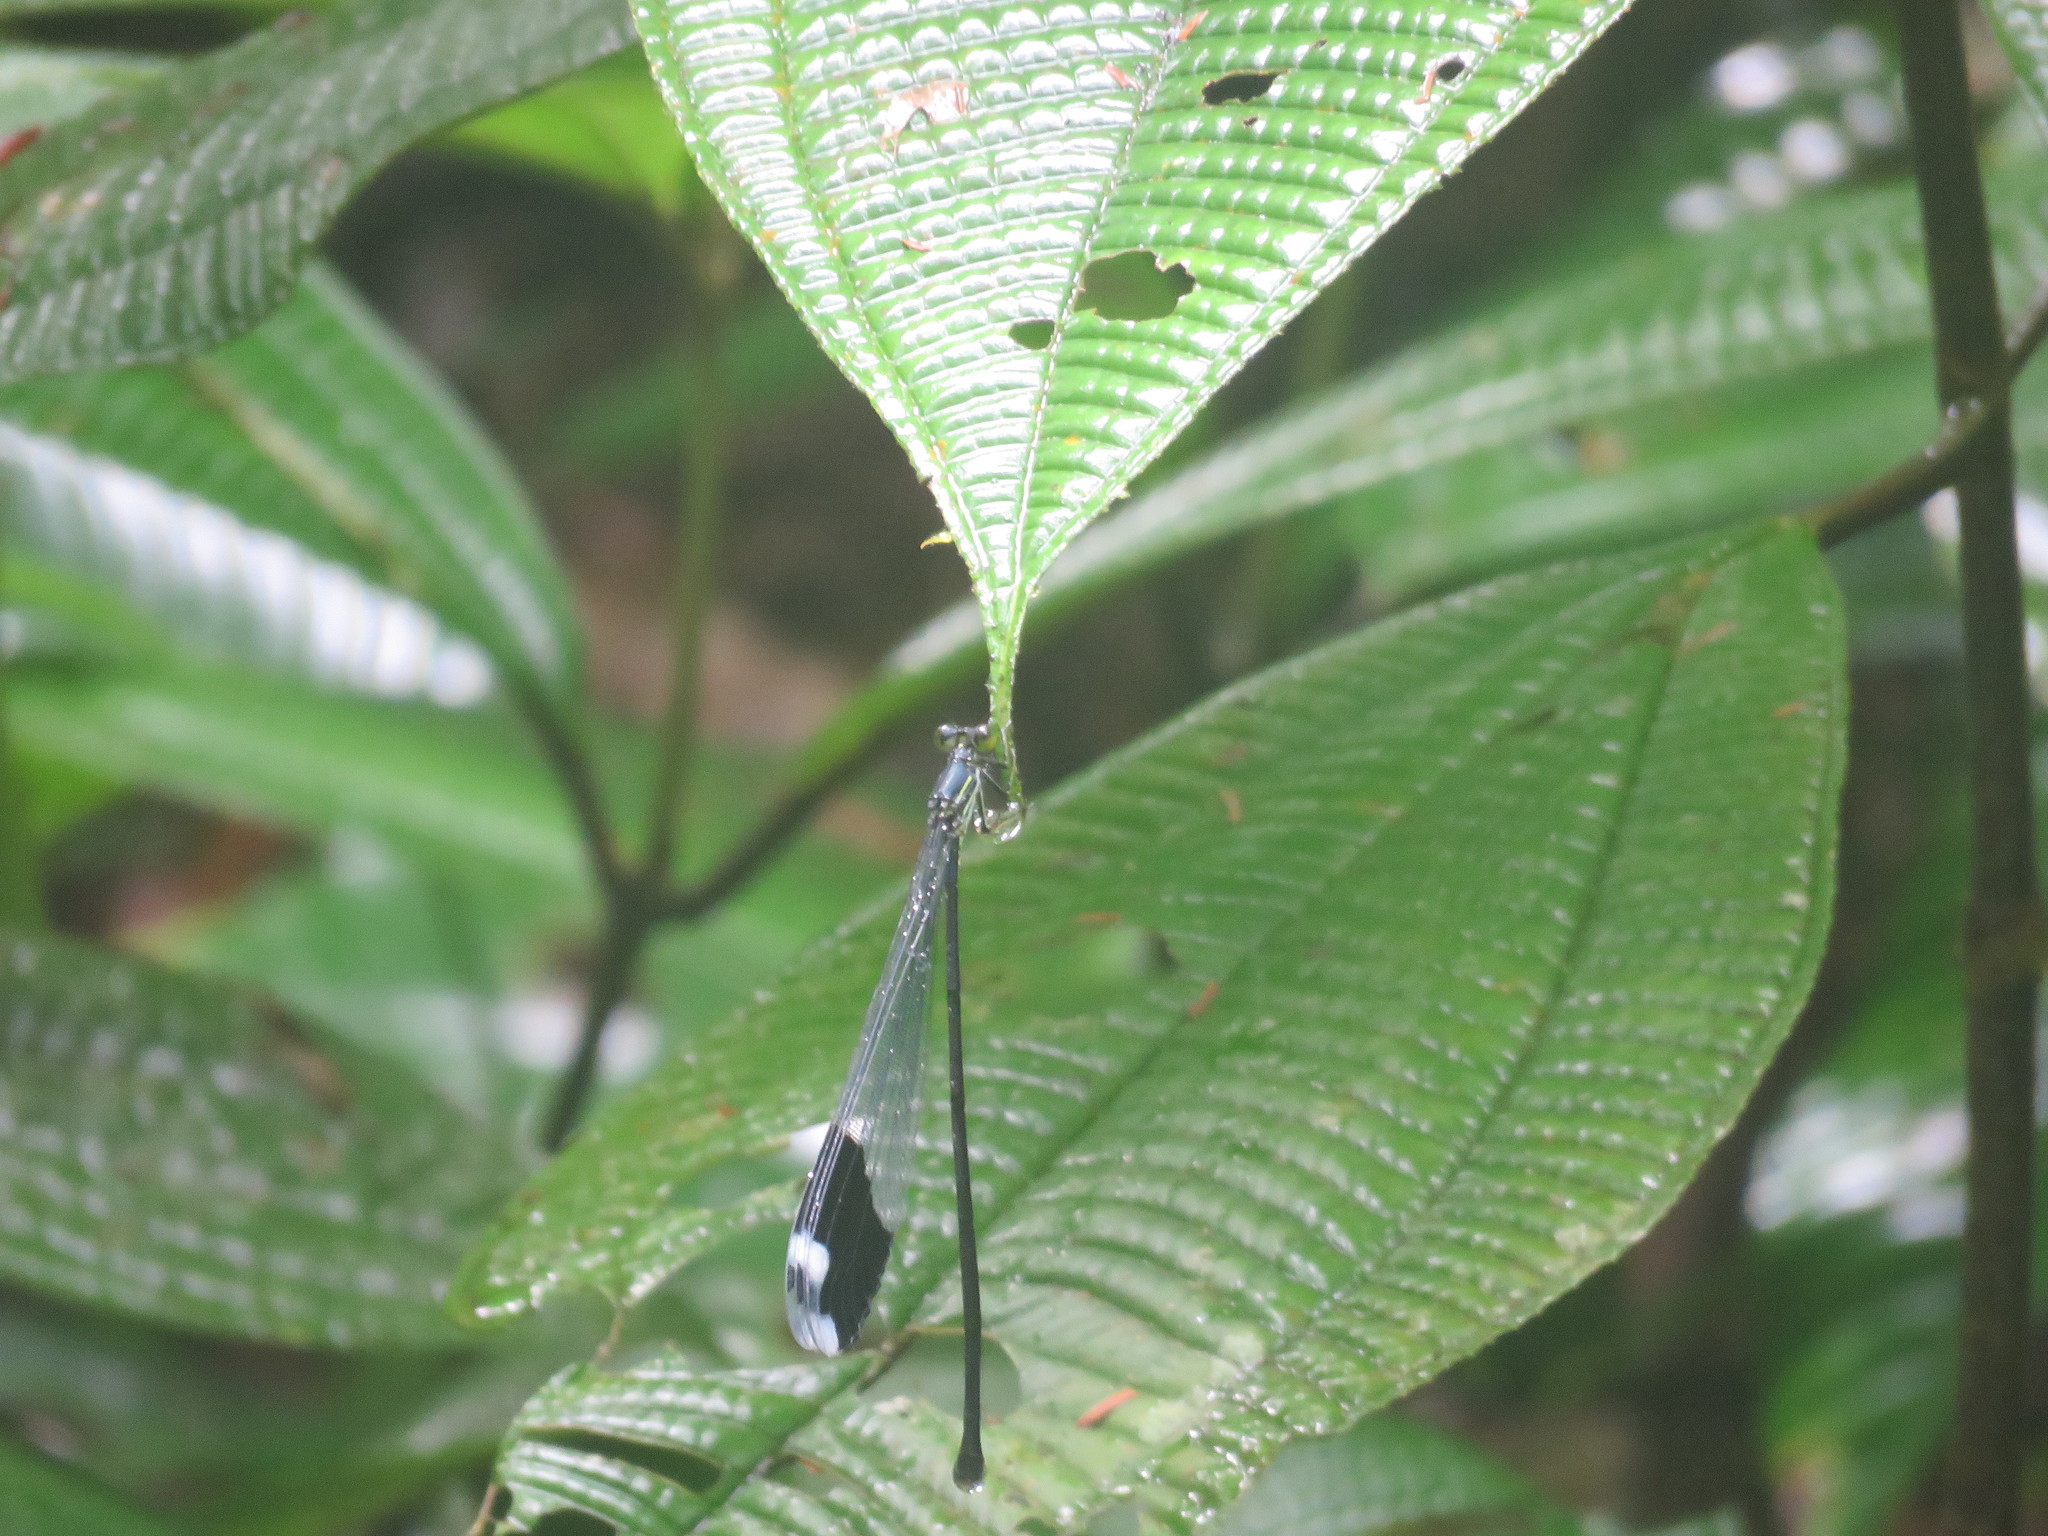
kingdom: Animalia
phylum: Arthropoda
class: Insecta
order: Odonata
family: Coenagrionidae
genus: Megaloprepus
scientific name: Megaloprepus caerulatus
